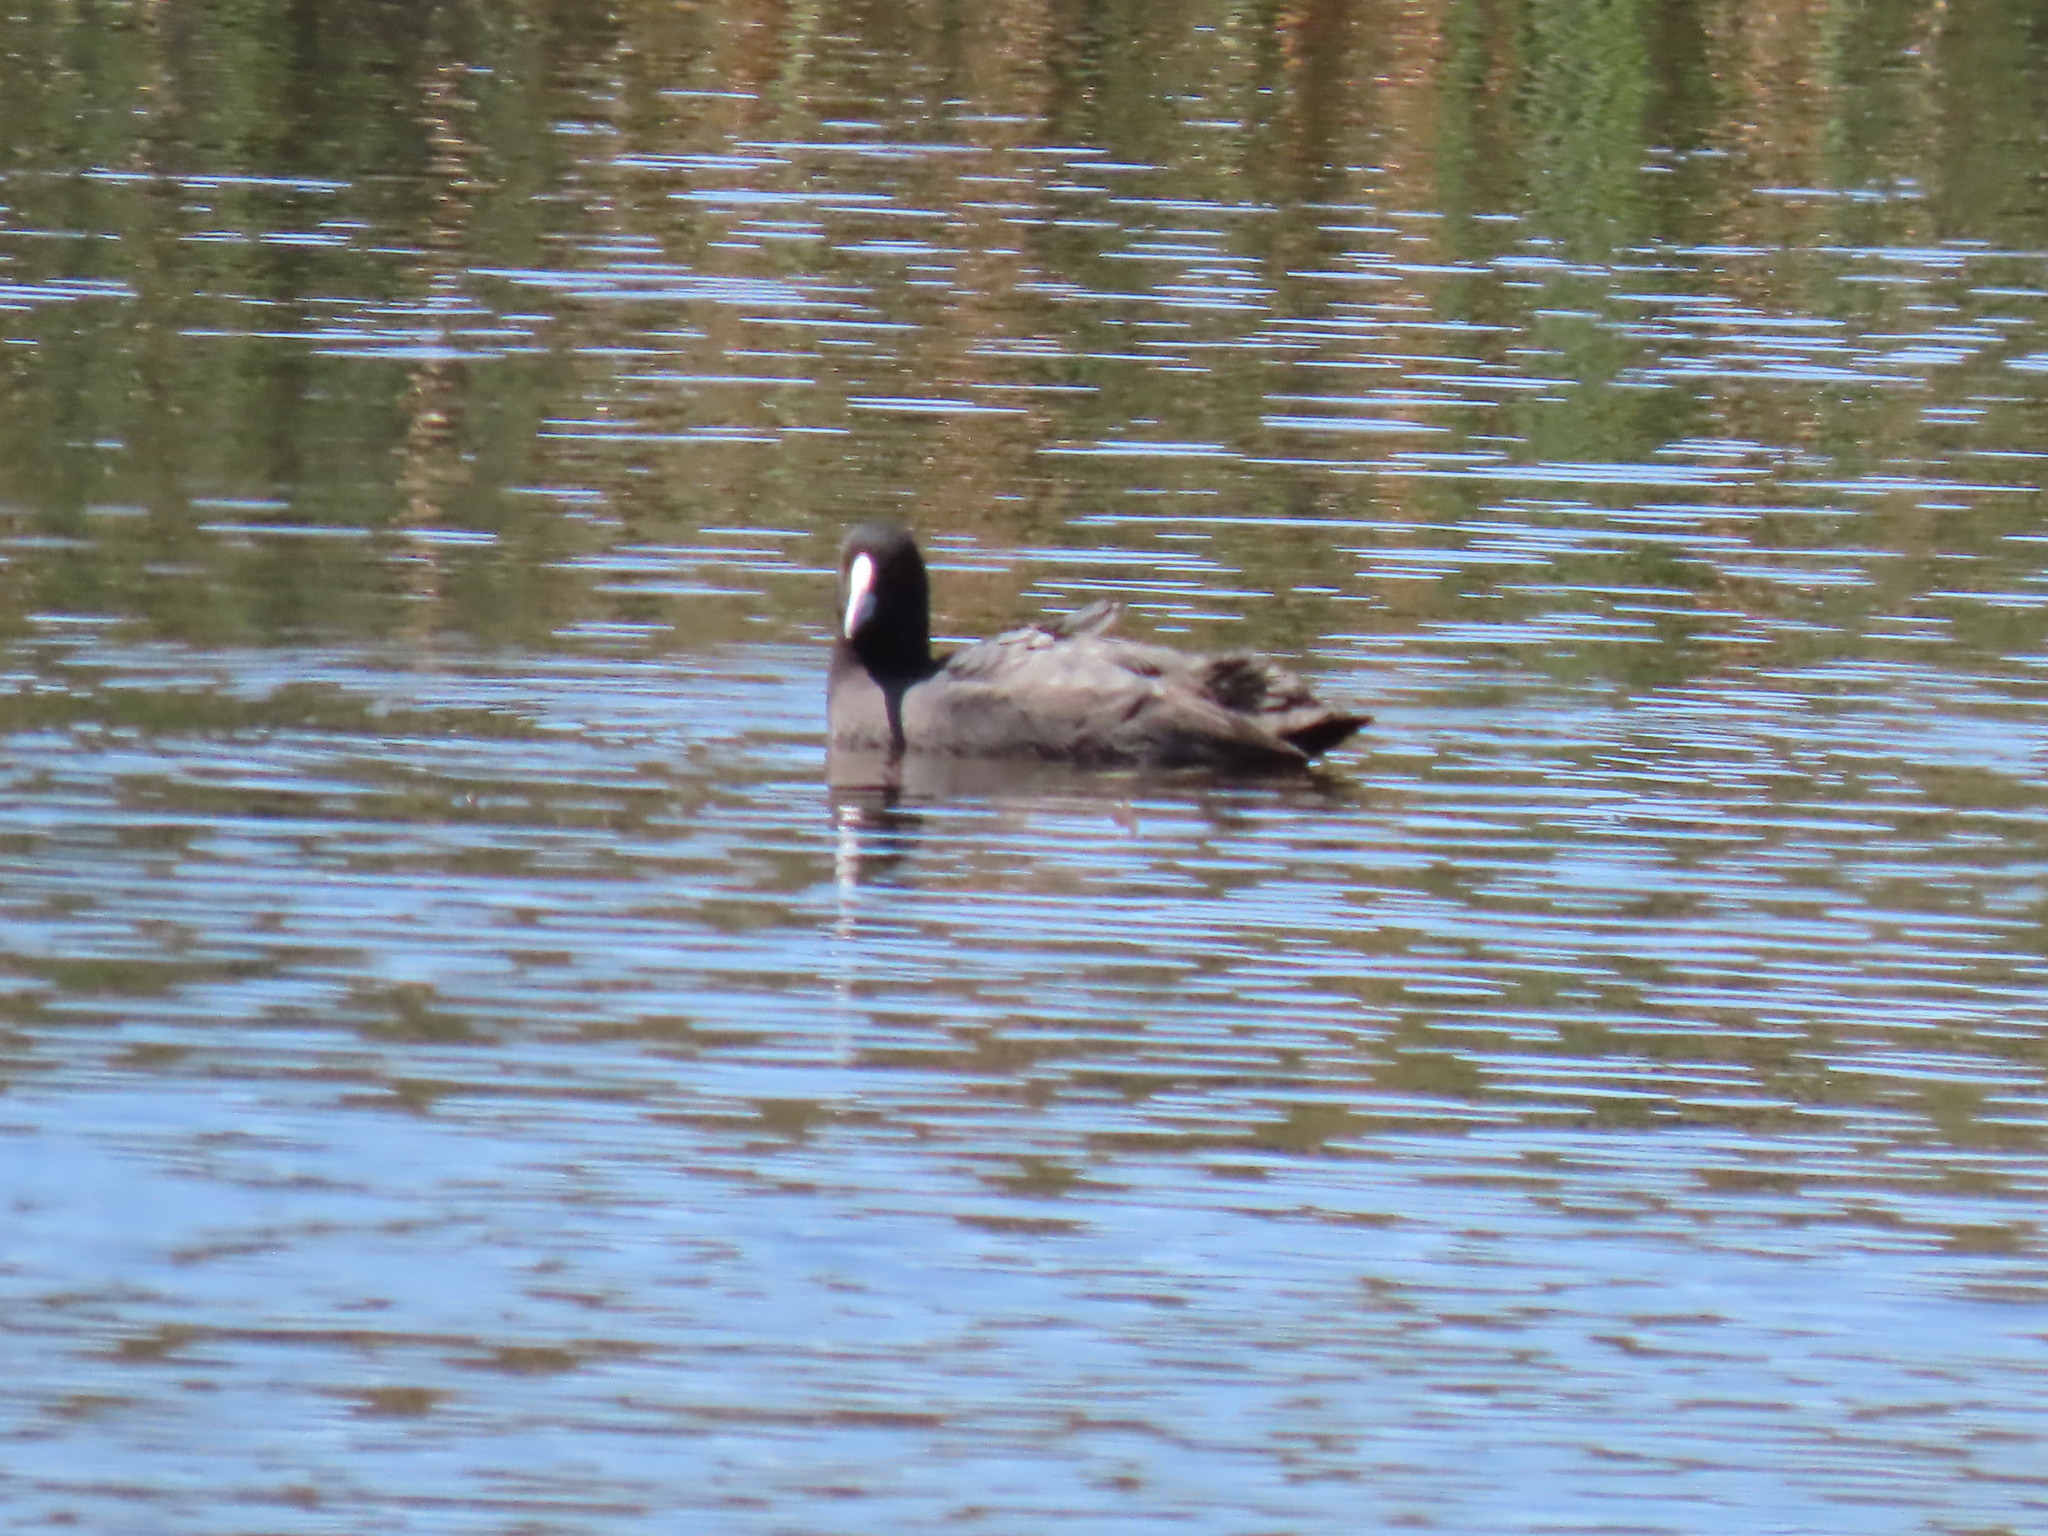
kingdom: Animalia
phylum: Chordata
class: Aves
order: Gruiformes
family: Rallidae
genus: Fulica
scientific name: Fulica atra
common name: Eurasian coot
